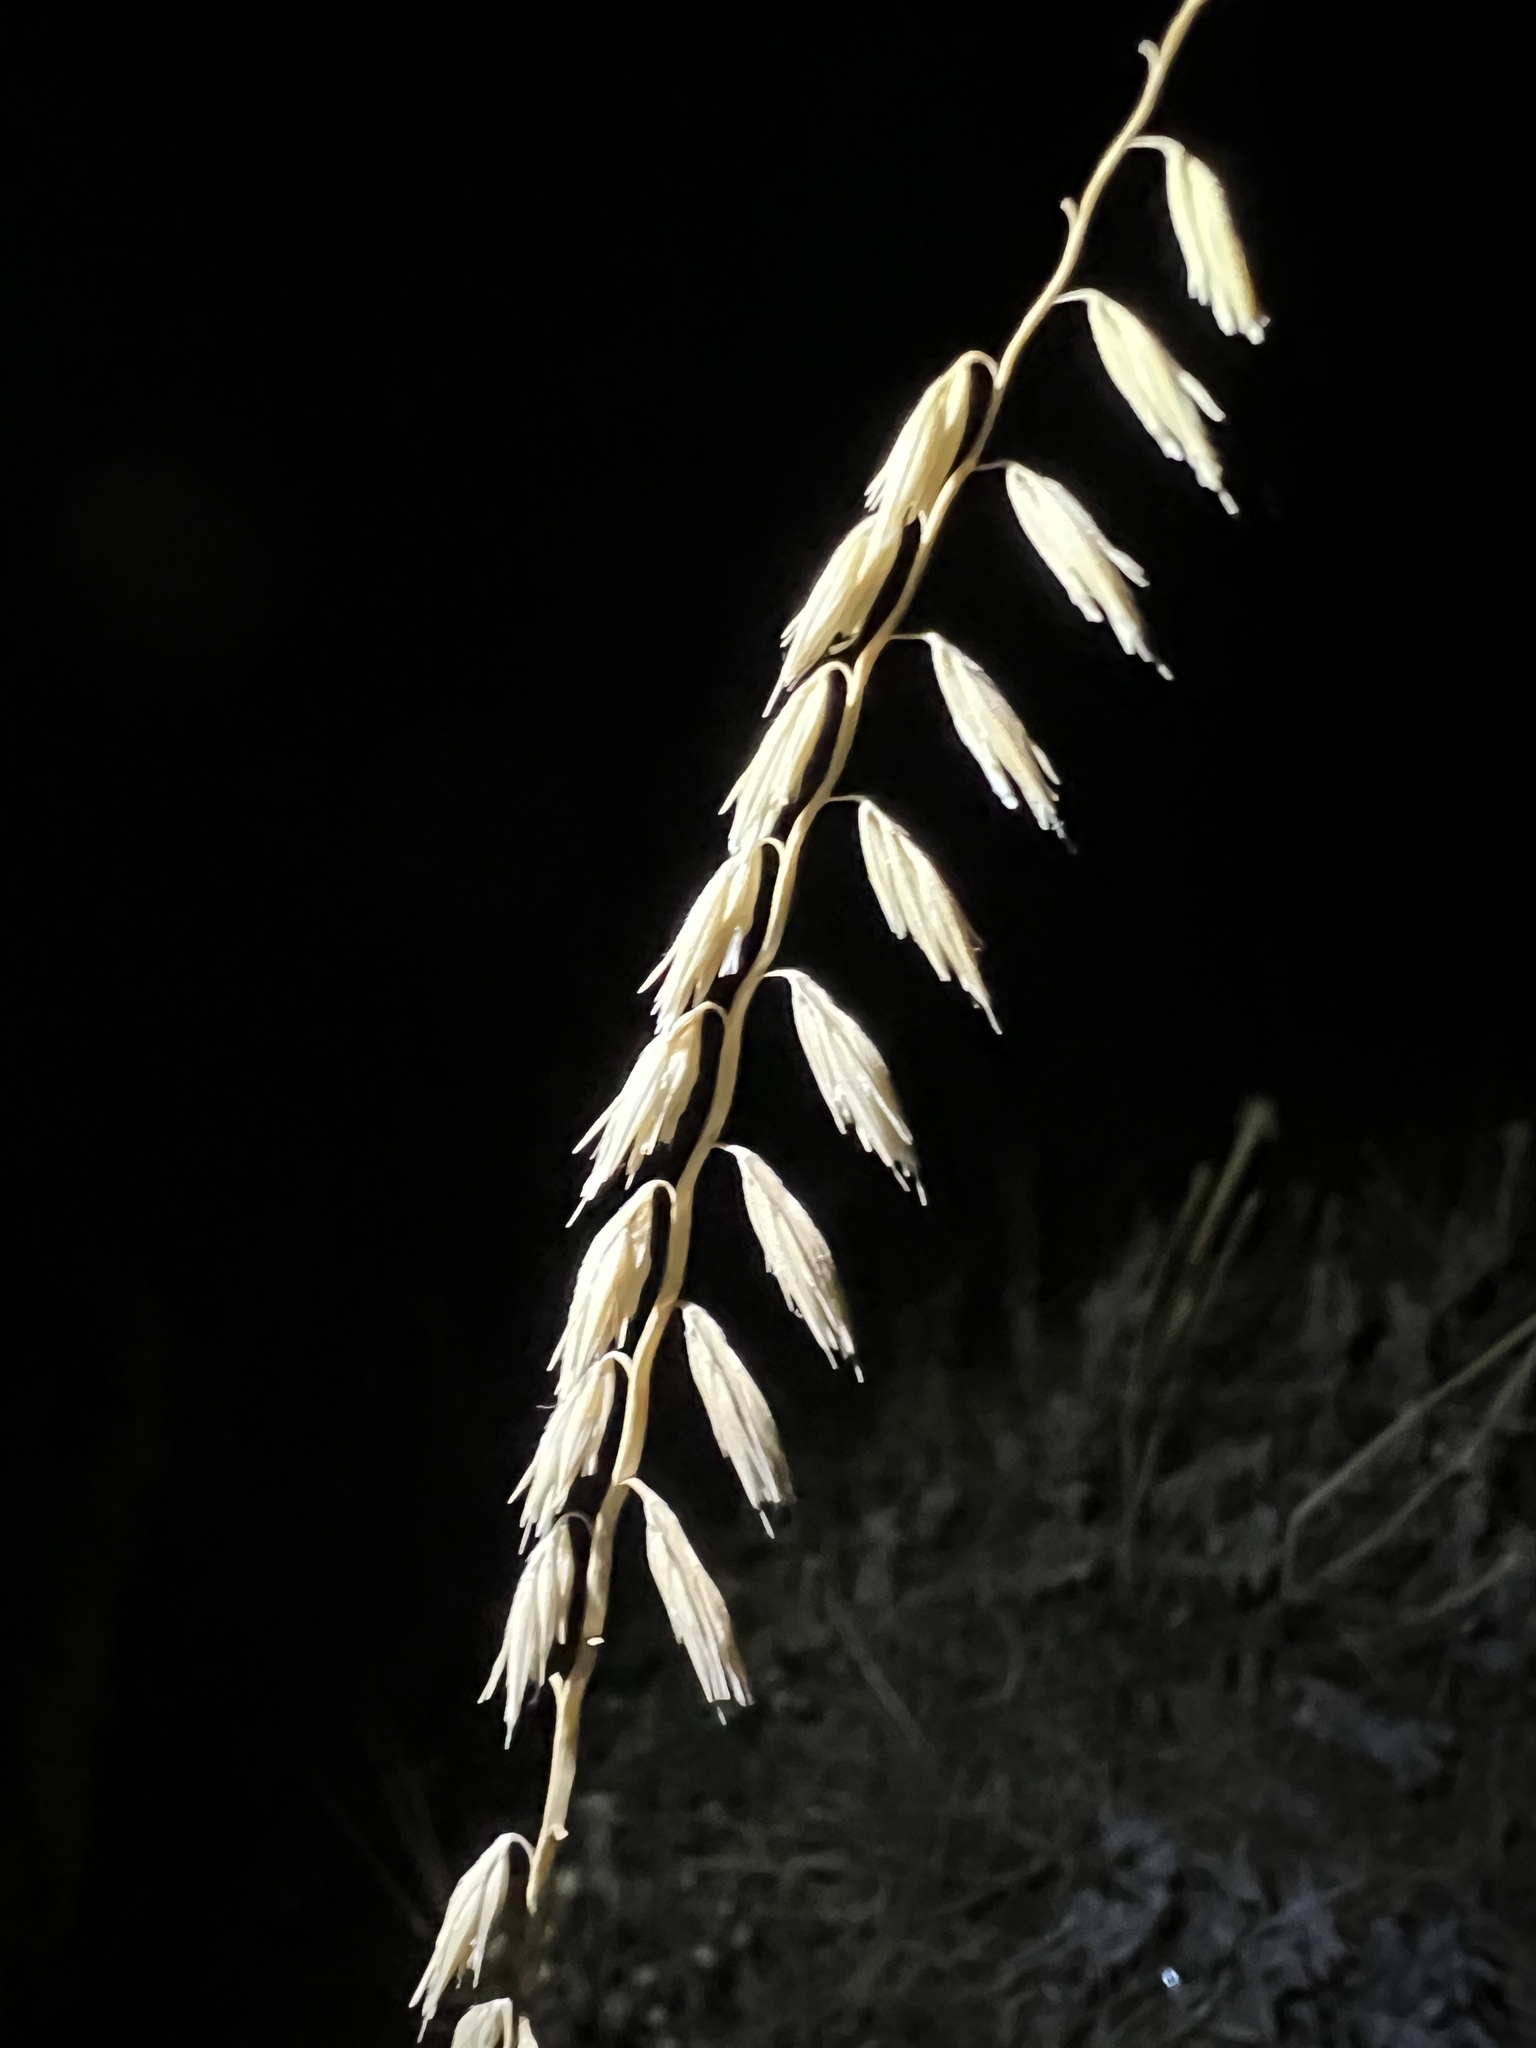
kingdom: Plantae
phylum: Tracheophyta
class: Liliopsida
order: Poales
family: Poaceae
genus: Bouteloua
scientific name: Bouteloua curtipendula
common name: Side-oats grama
